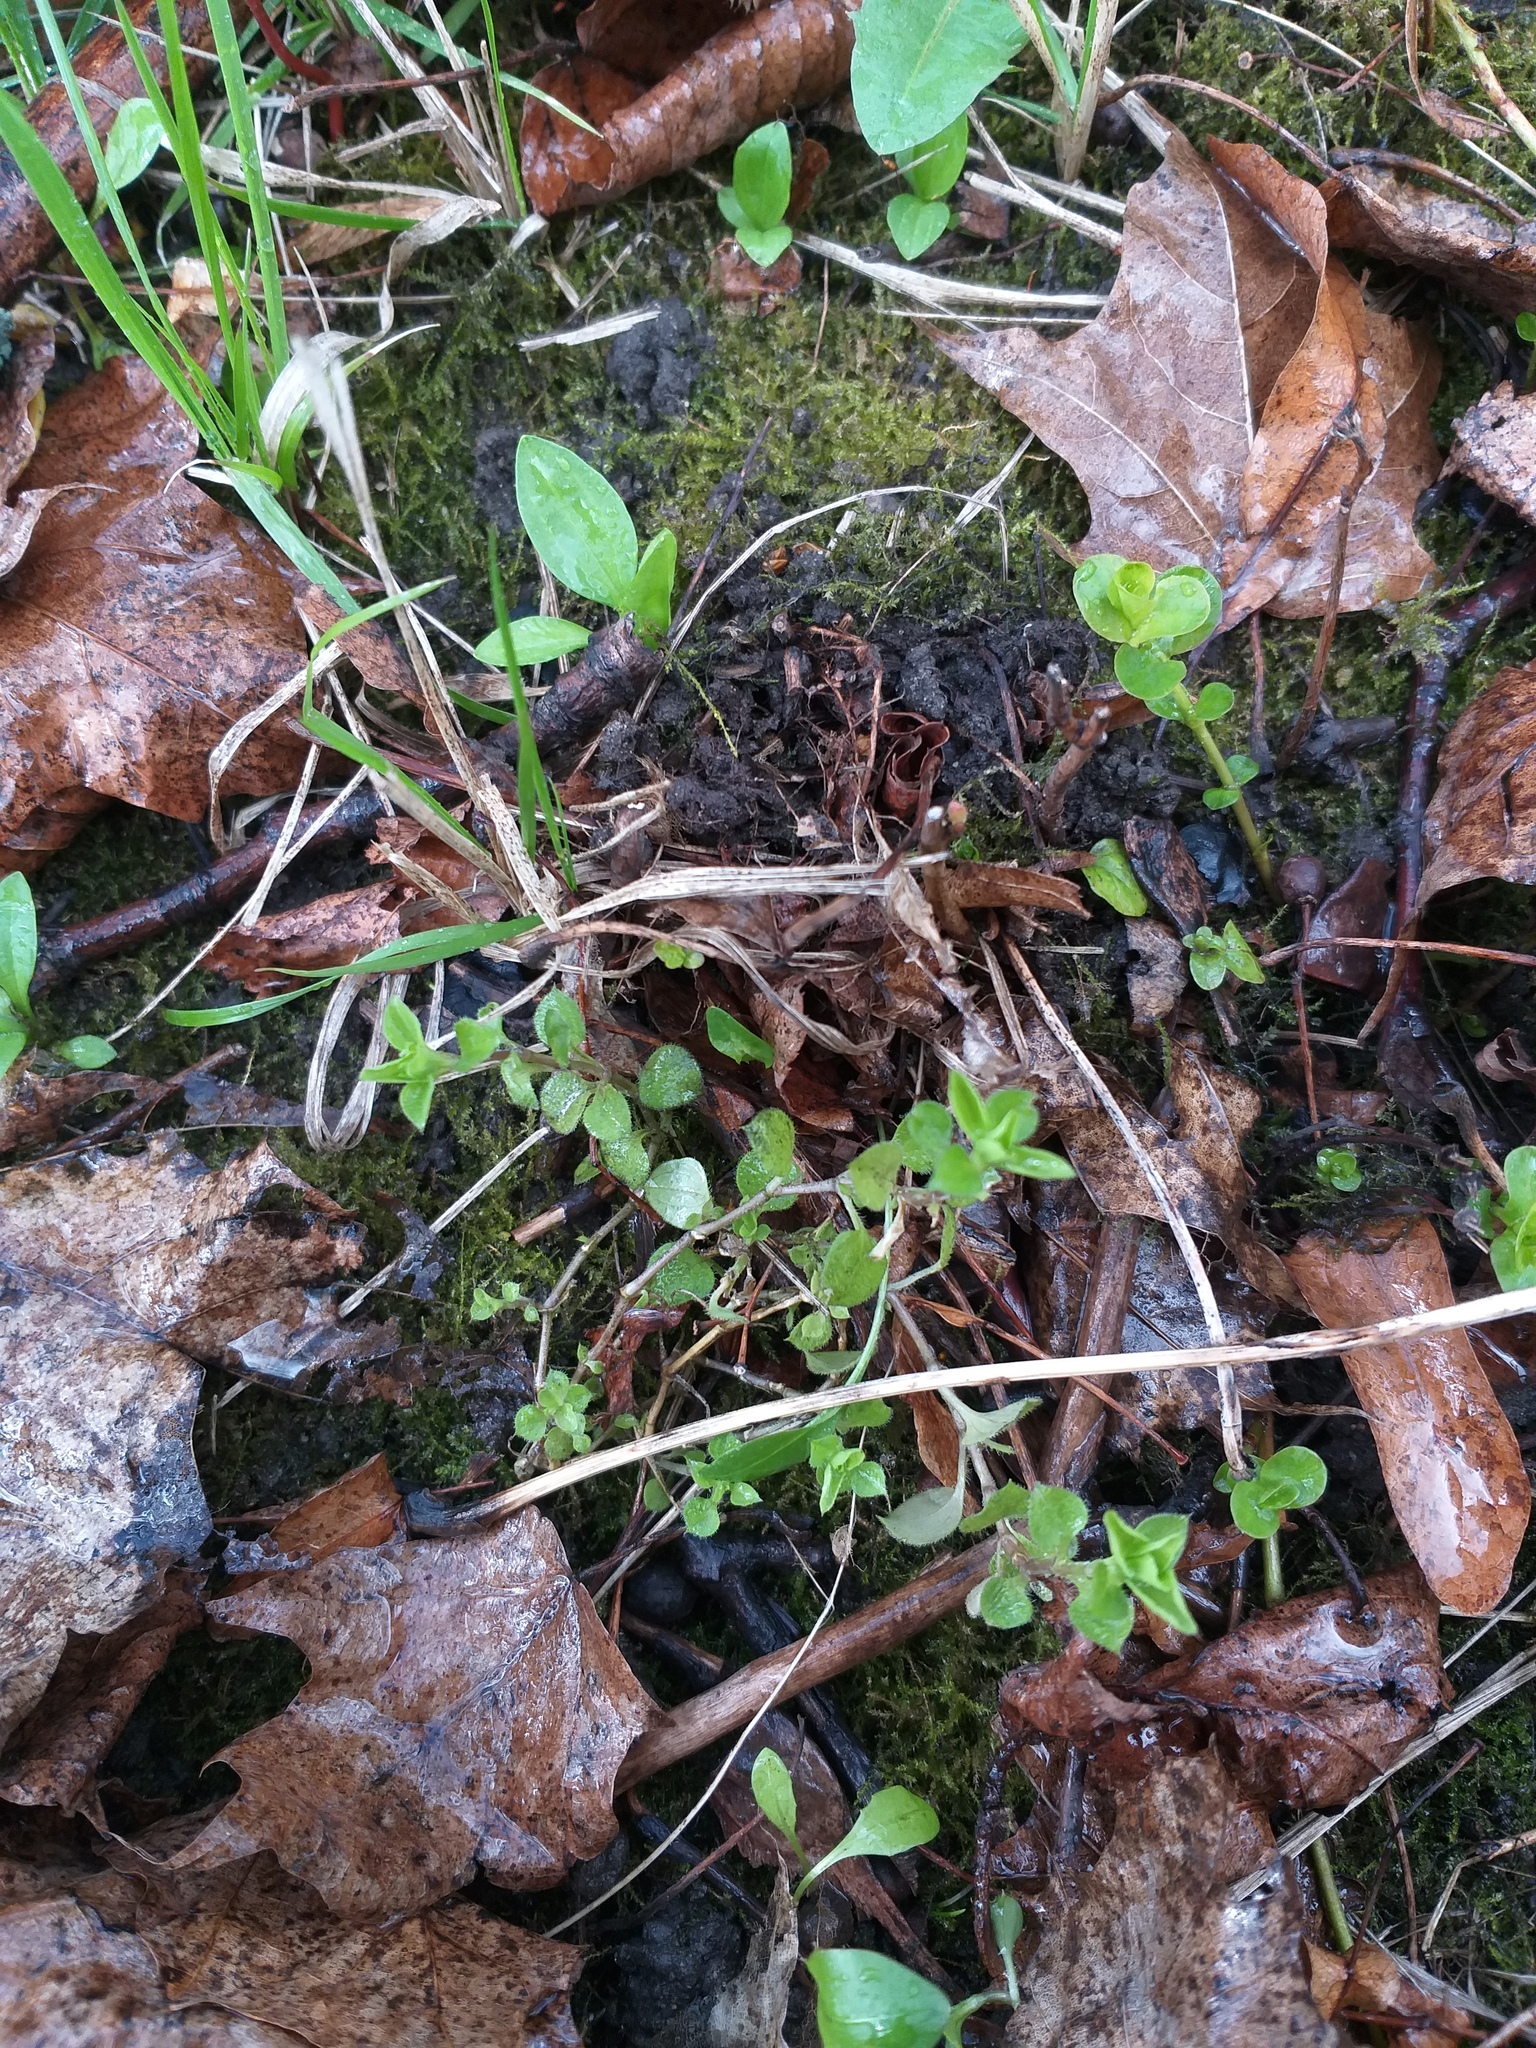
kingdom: Plantae
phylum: Tracheophyta
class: Magnoliopsida
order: Caryophyllales
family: Caryophyllaceae
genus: Moehringia
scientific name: Moehringia trinervia
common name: Three-nerved sandwort
